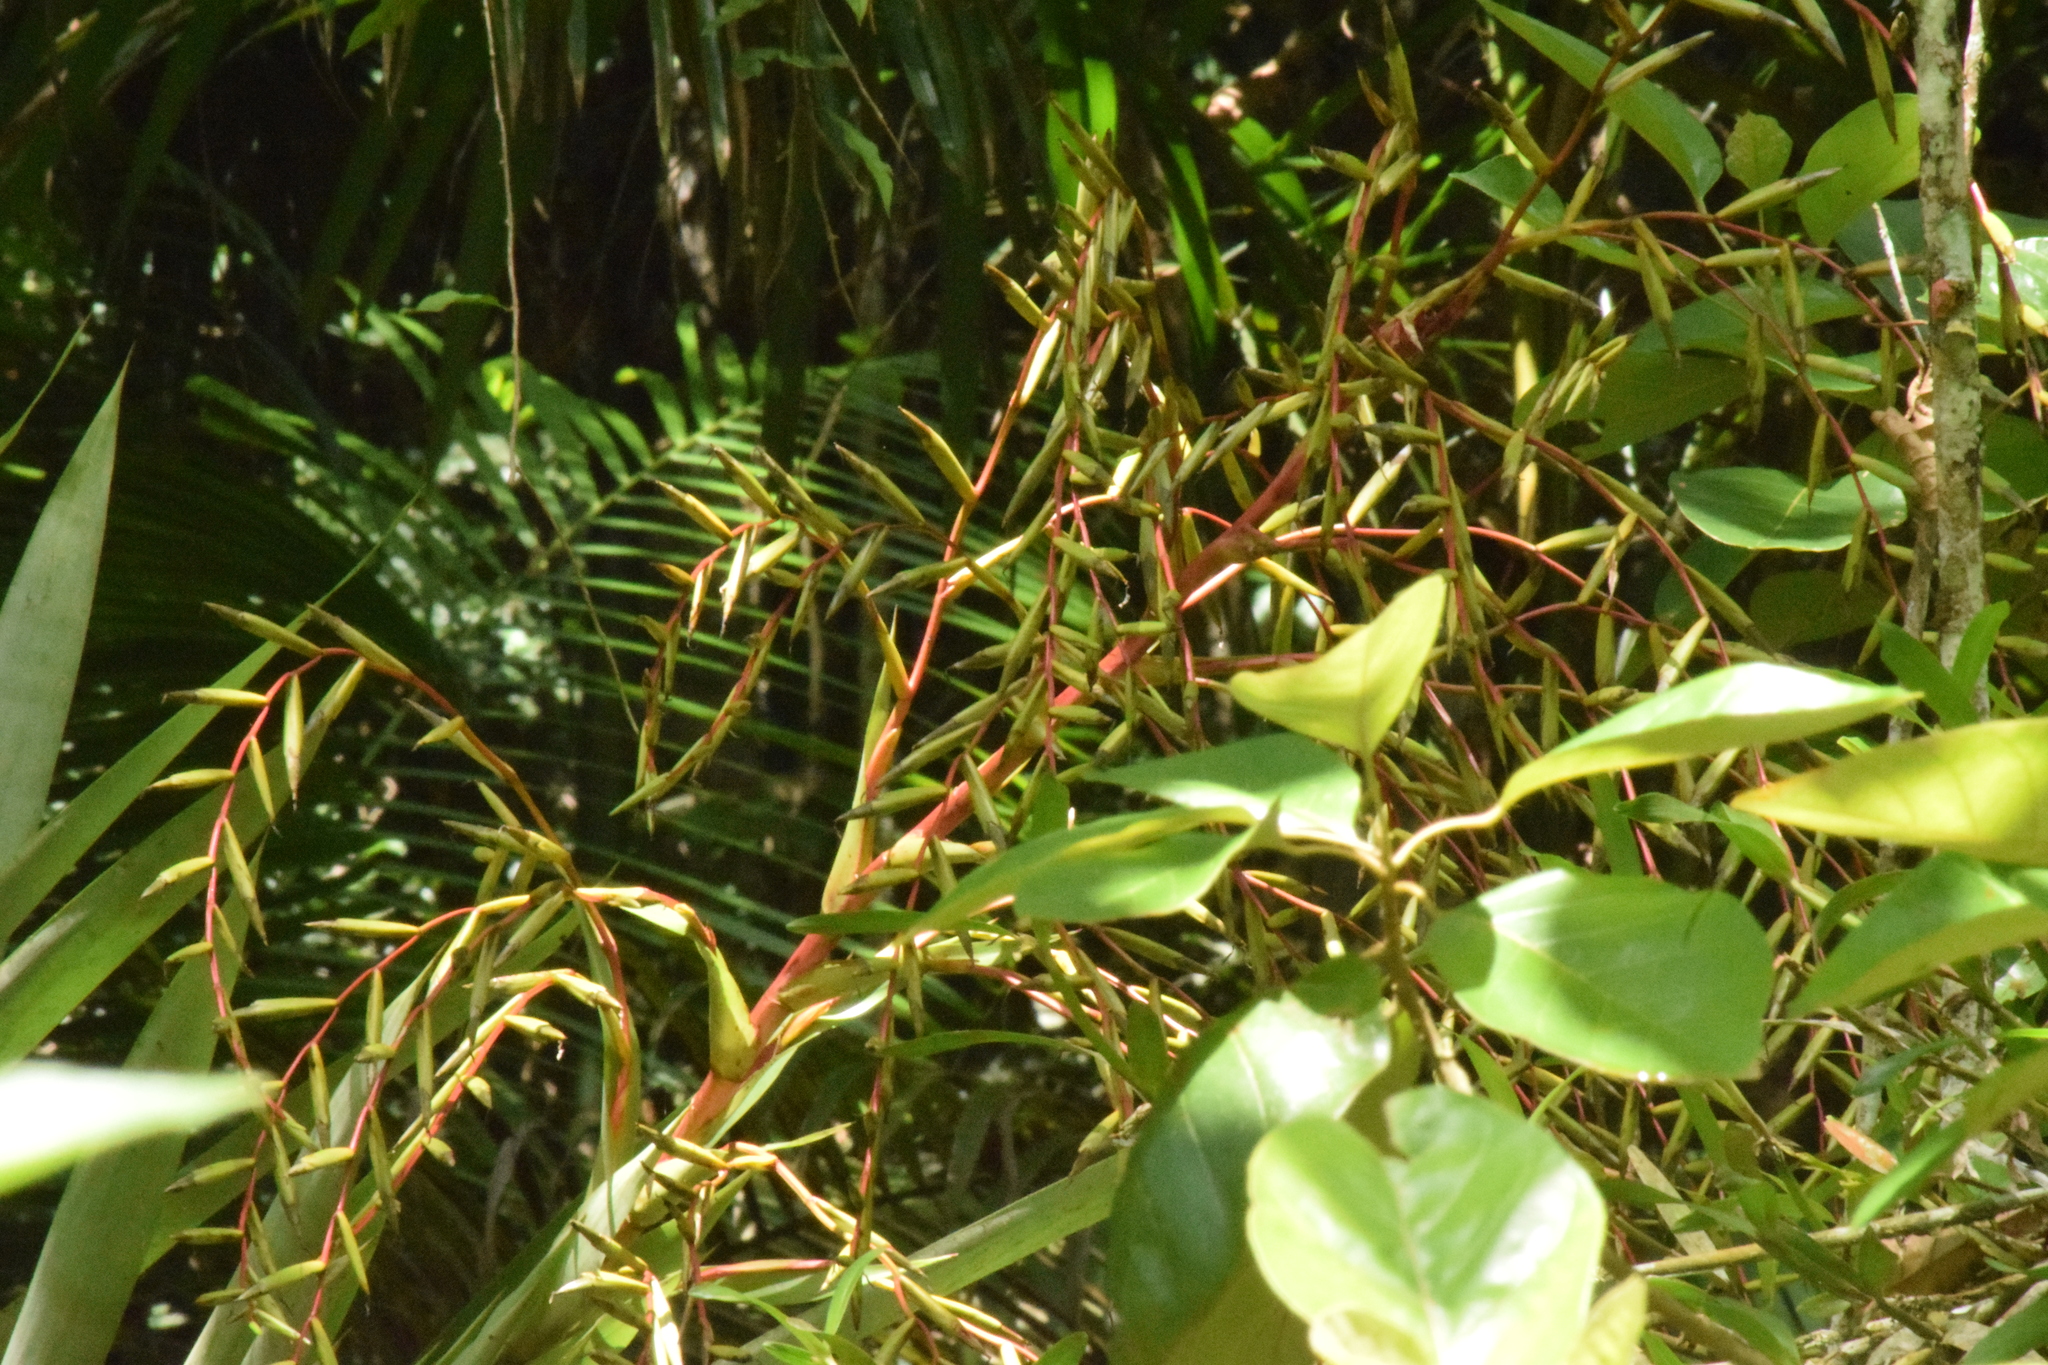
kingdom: Plantae
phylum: Tracheophyta
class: Liliopsida
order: Poales
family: Bromeliaceae
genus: Vriesea
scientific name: Vriesea paratiensis
